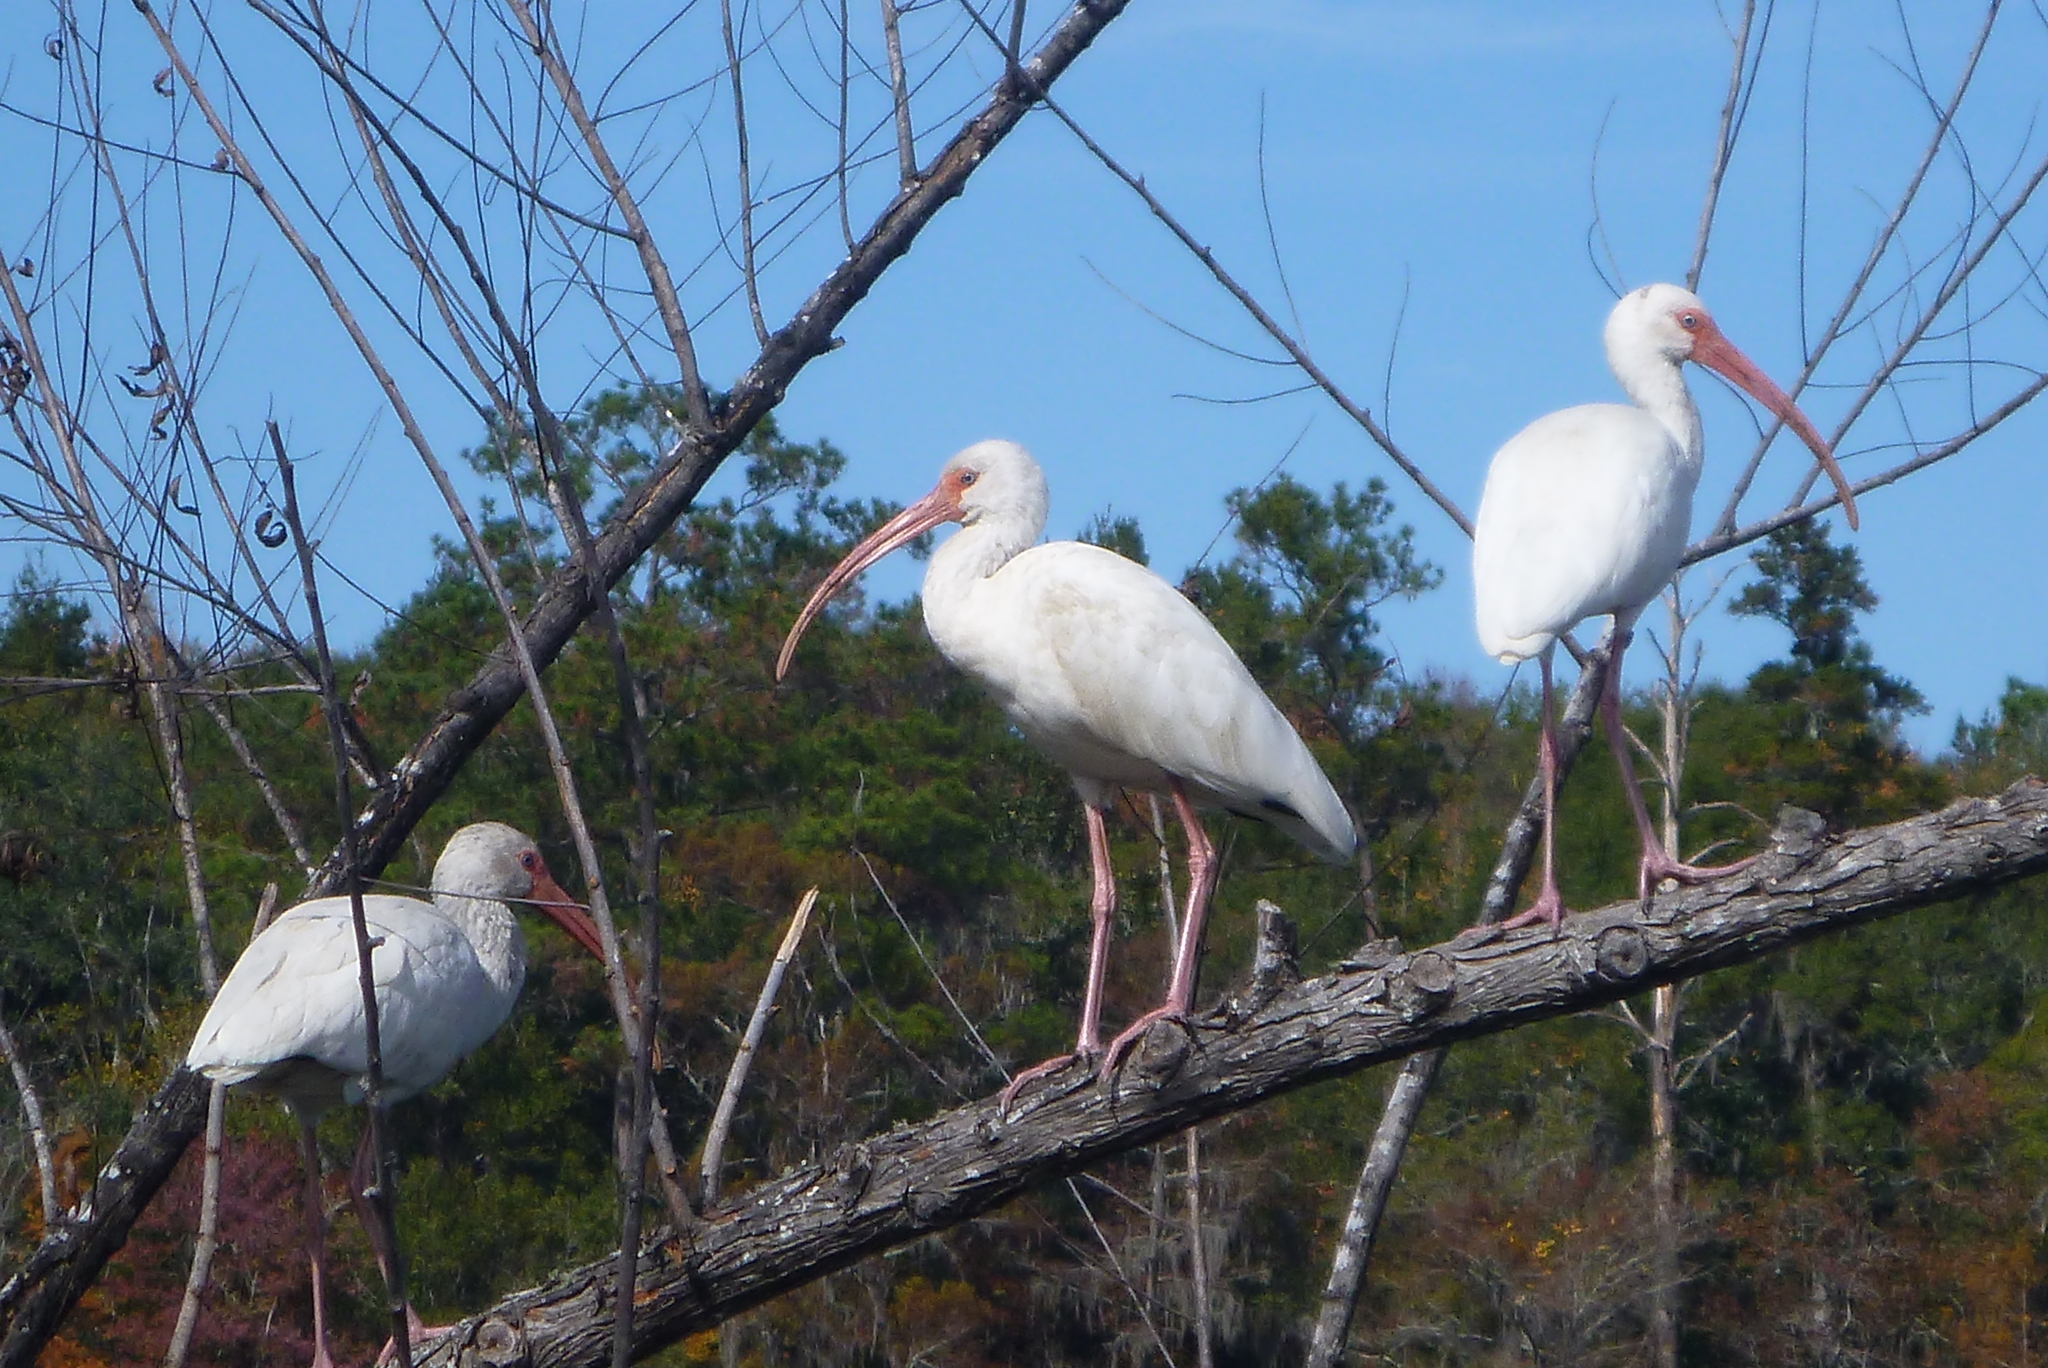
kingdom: Animalia
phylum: Chordata
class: Aves
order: Pelecaniformes
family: Threskiornithidae
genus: Eudocimus
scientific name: Eudocimus albus
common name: White ibis
